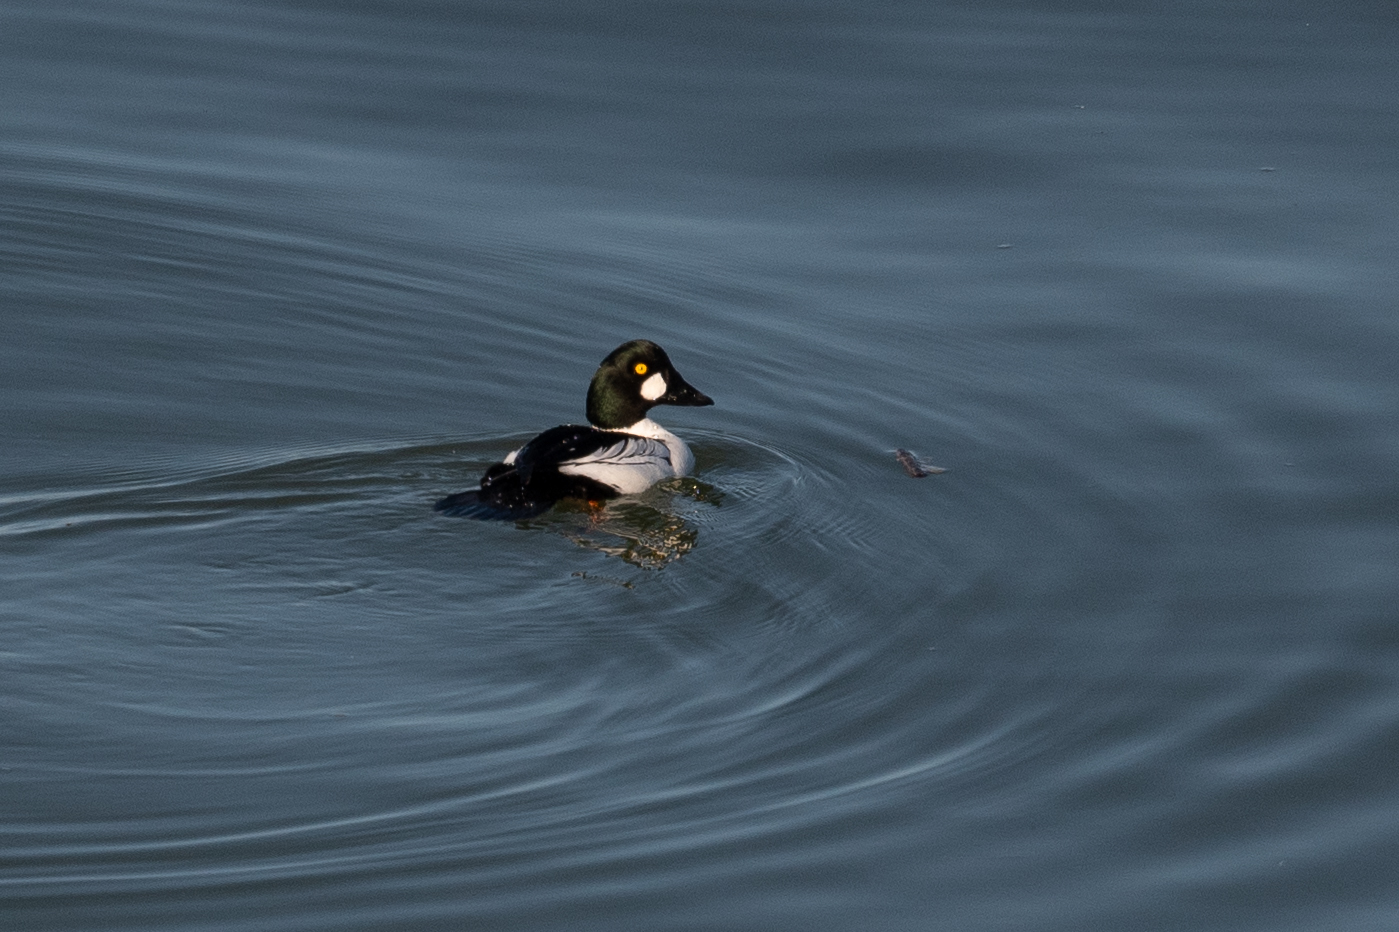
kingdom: Animalia
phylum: Chordata
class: Aves
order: Anseriformes
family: Anatidae
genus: Bucephala
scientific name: Bucephala clangula
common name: Common goldeneye
